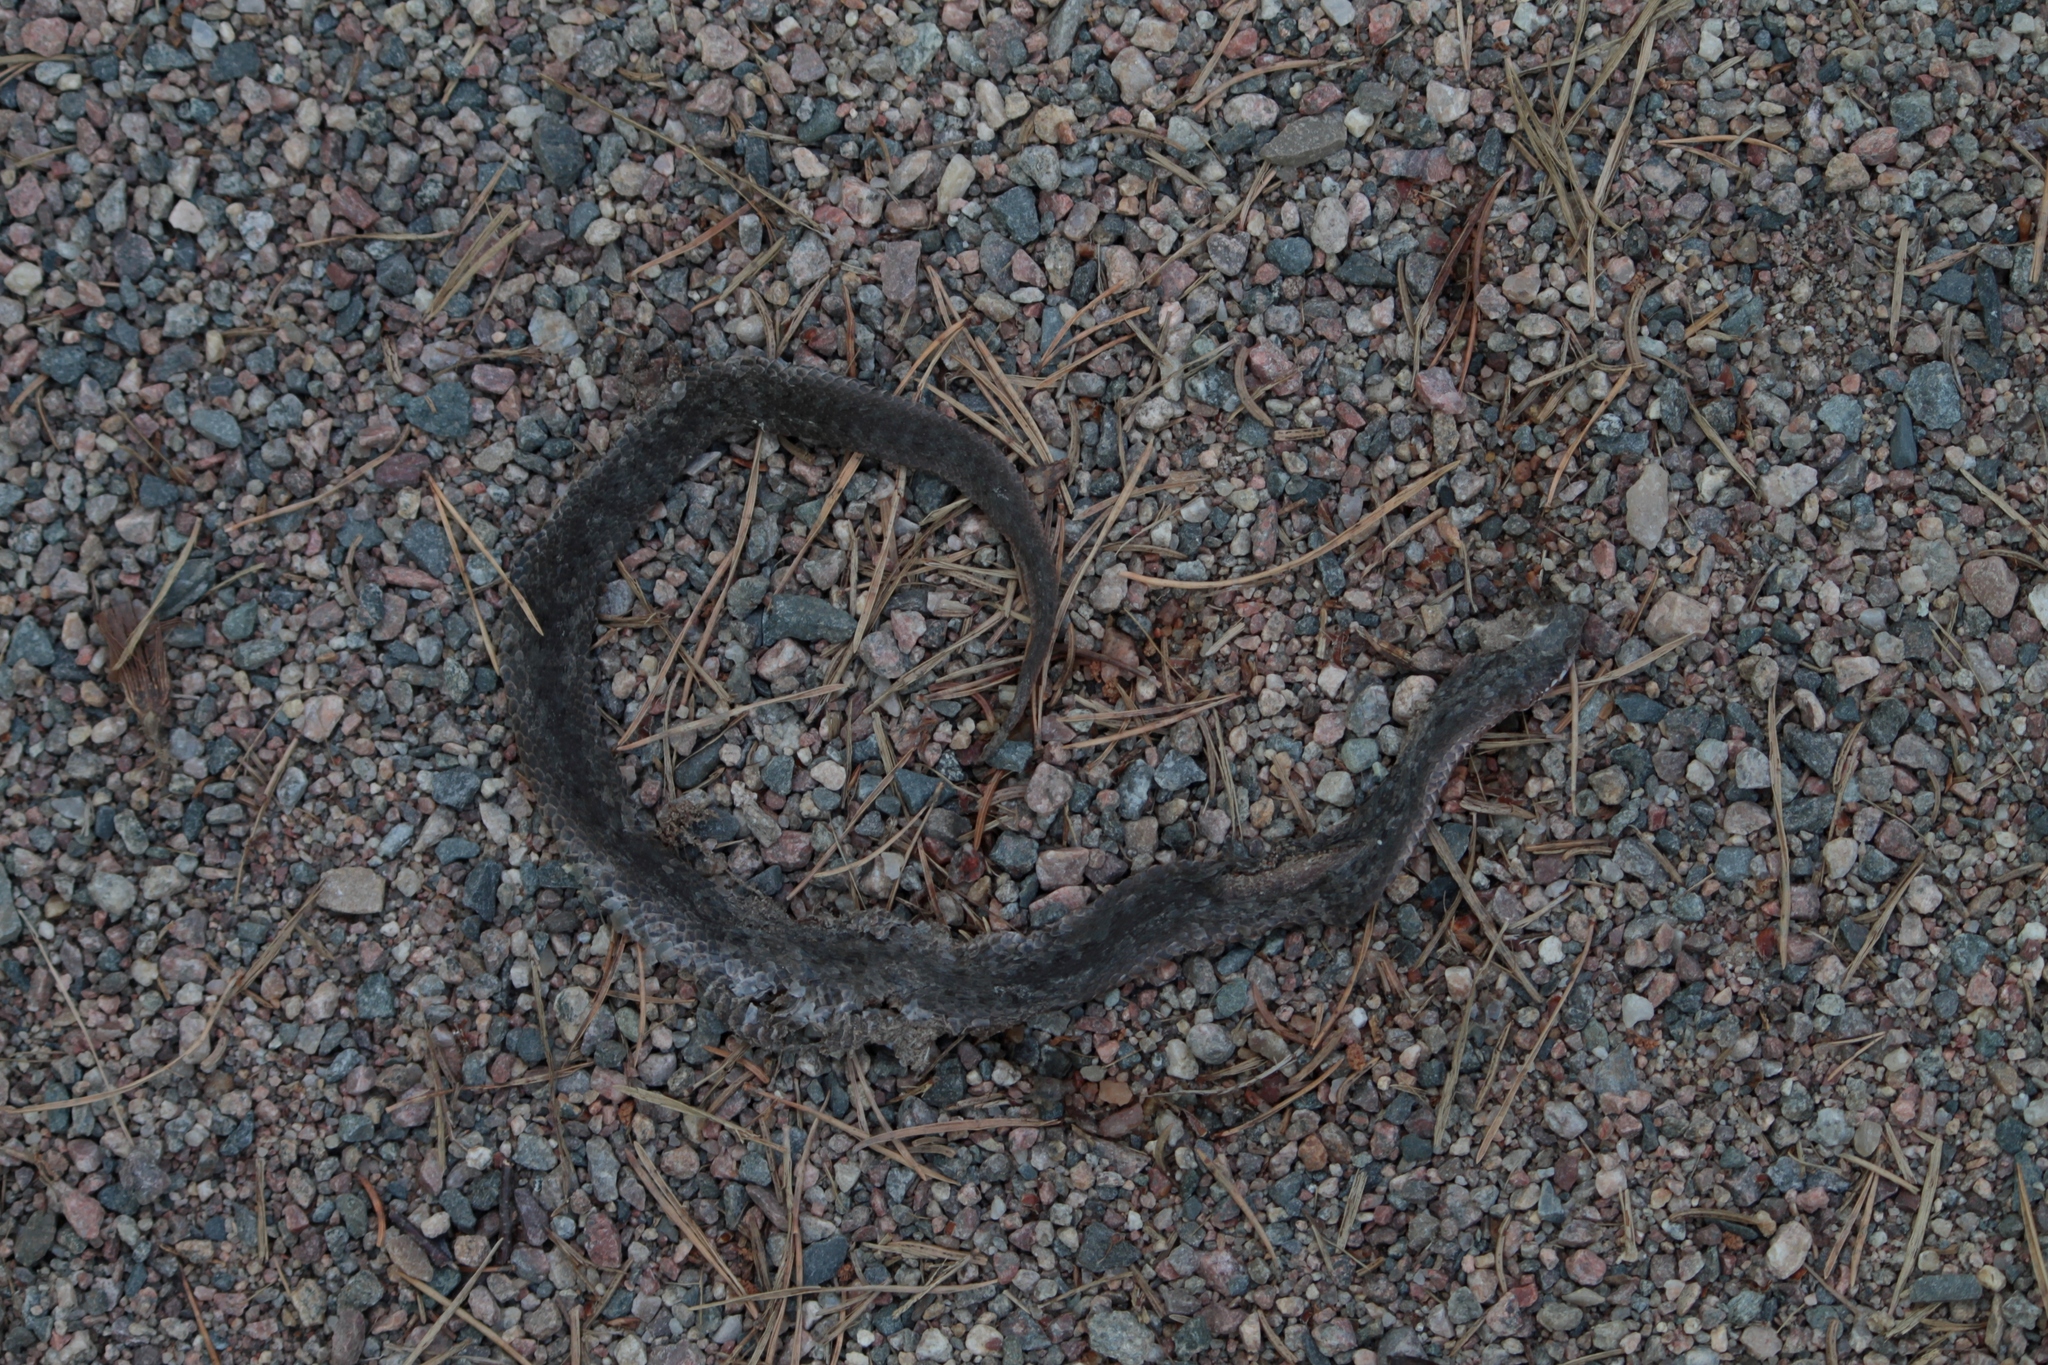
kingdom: Animalia
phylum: Chordata
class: Squamata
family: Viperidae
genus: Vipera
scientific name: Vipera berus
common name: Adder
